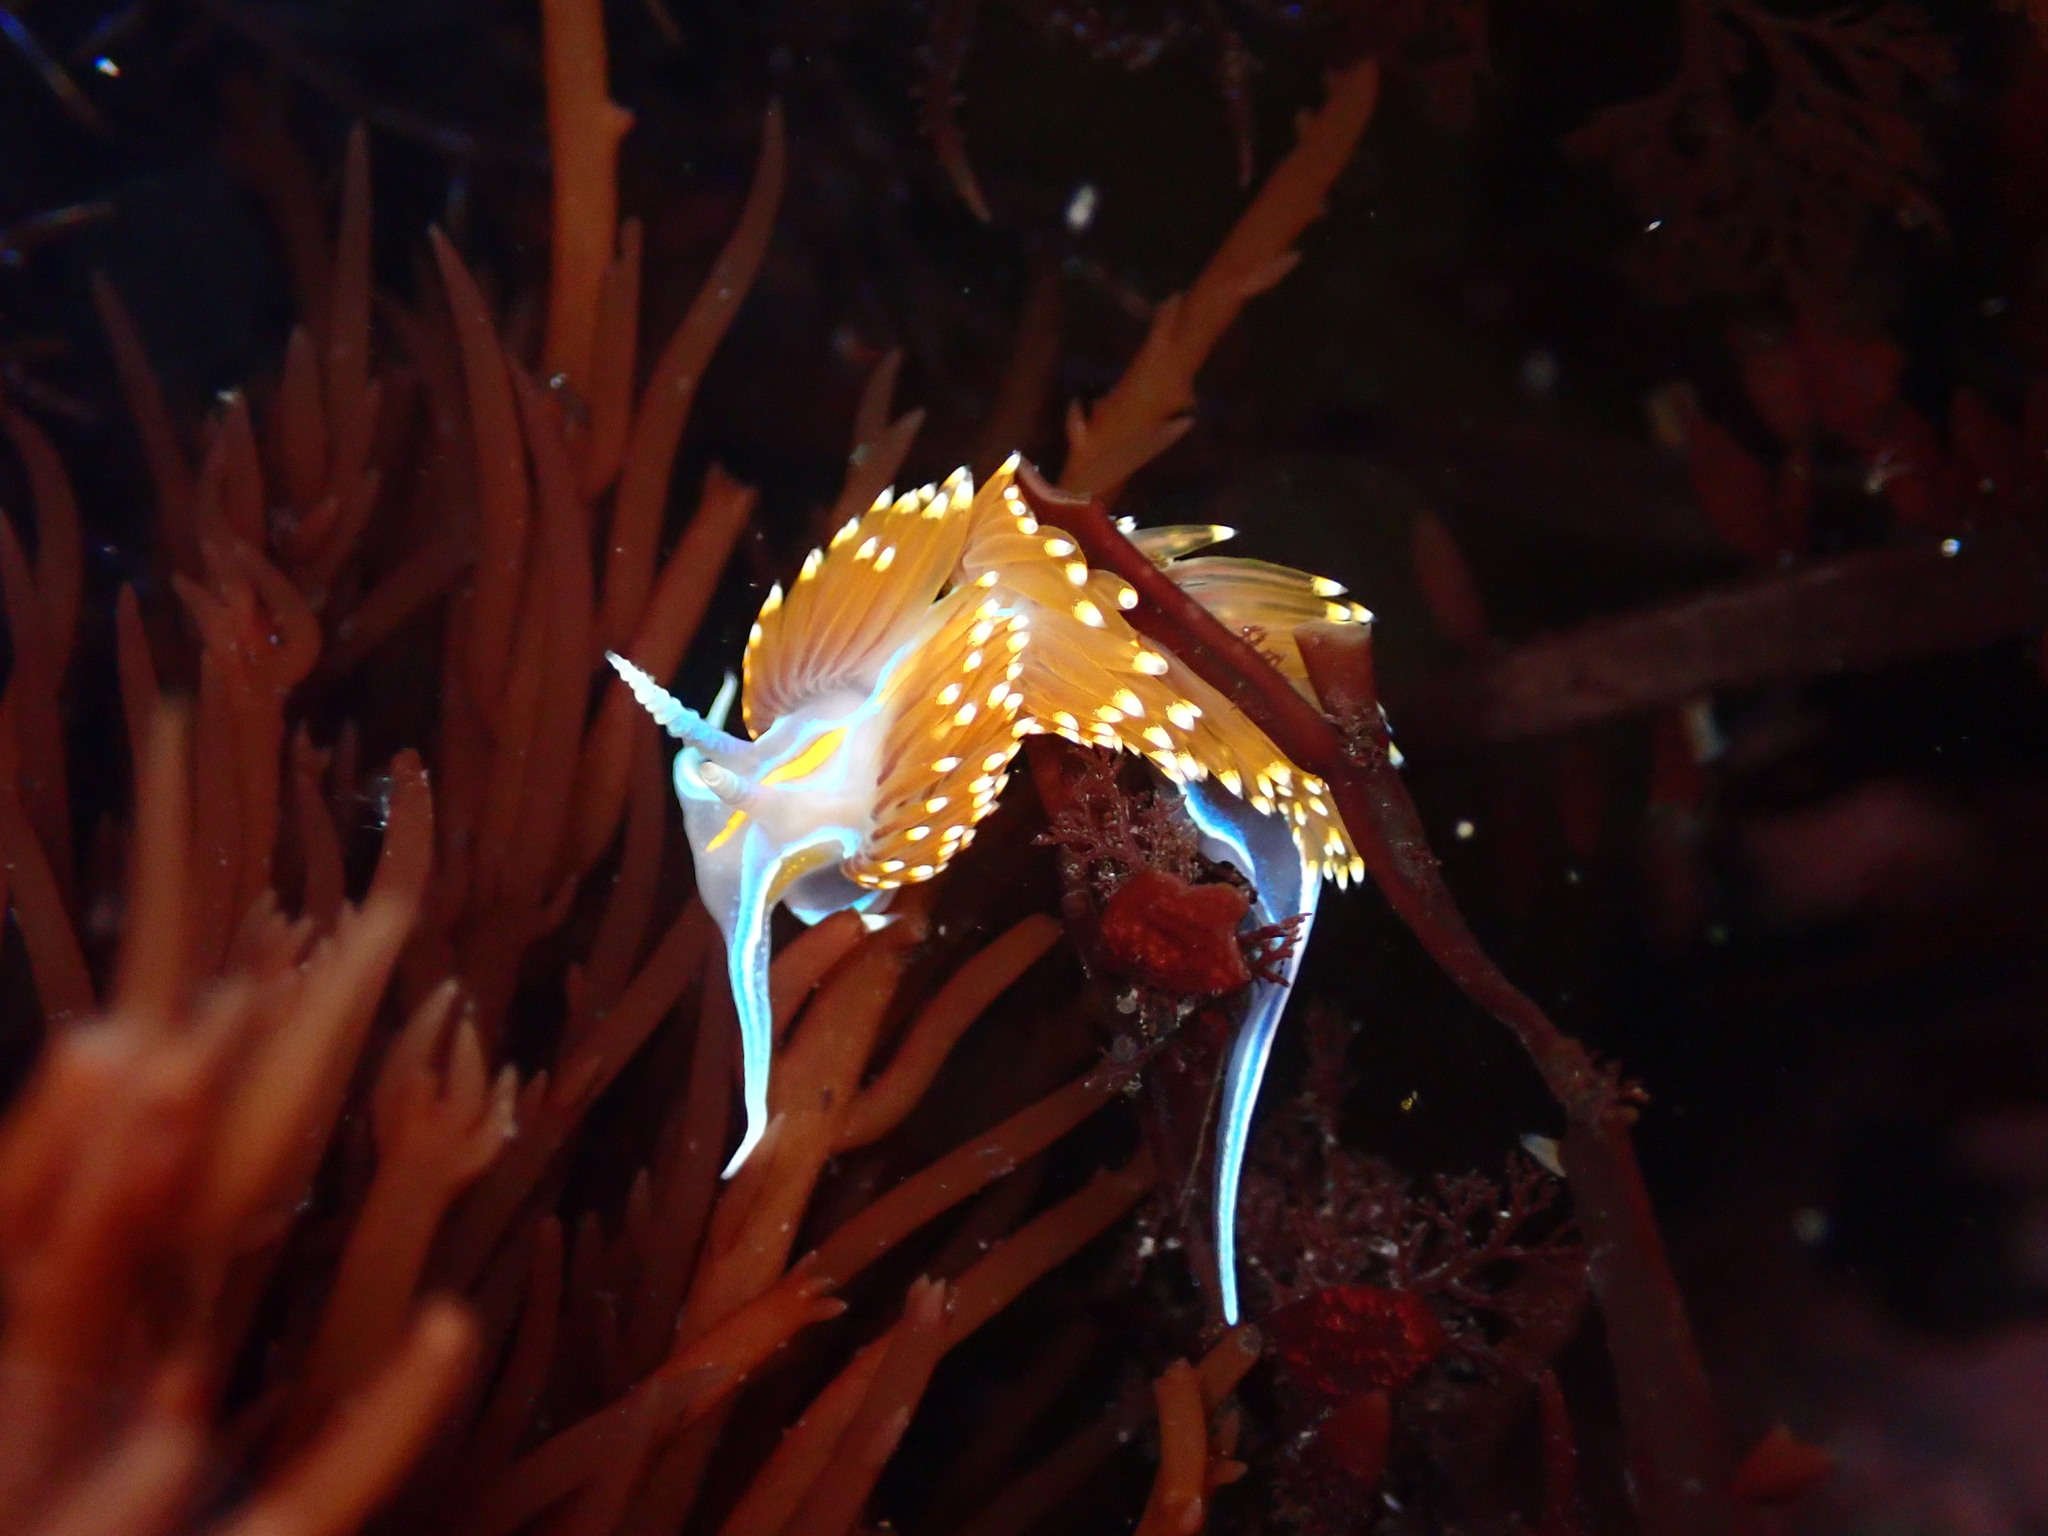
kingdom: Animalia
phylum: Mollusca
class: Gastropoda
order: Nudibranchia
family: Myrrhinidae
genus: Hermissenda
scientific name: Hermissenda opalescens
